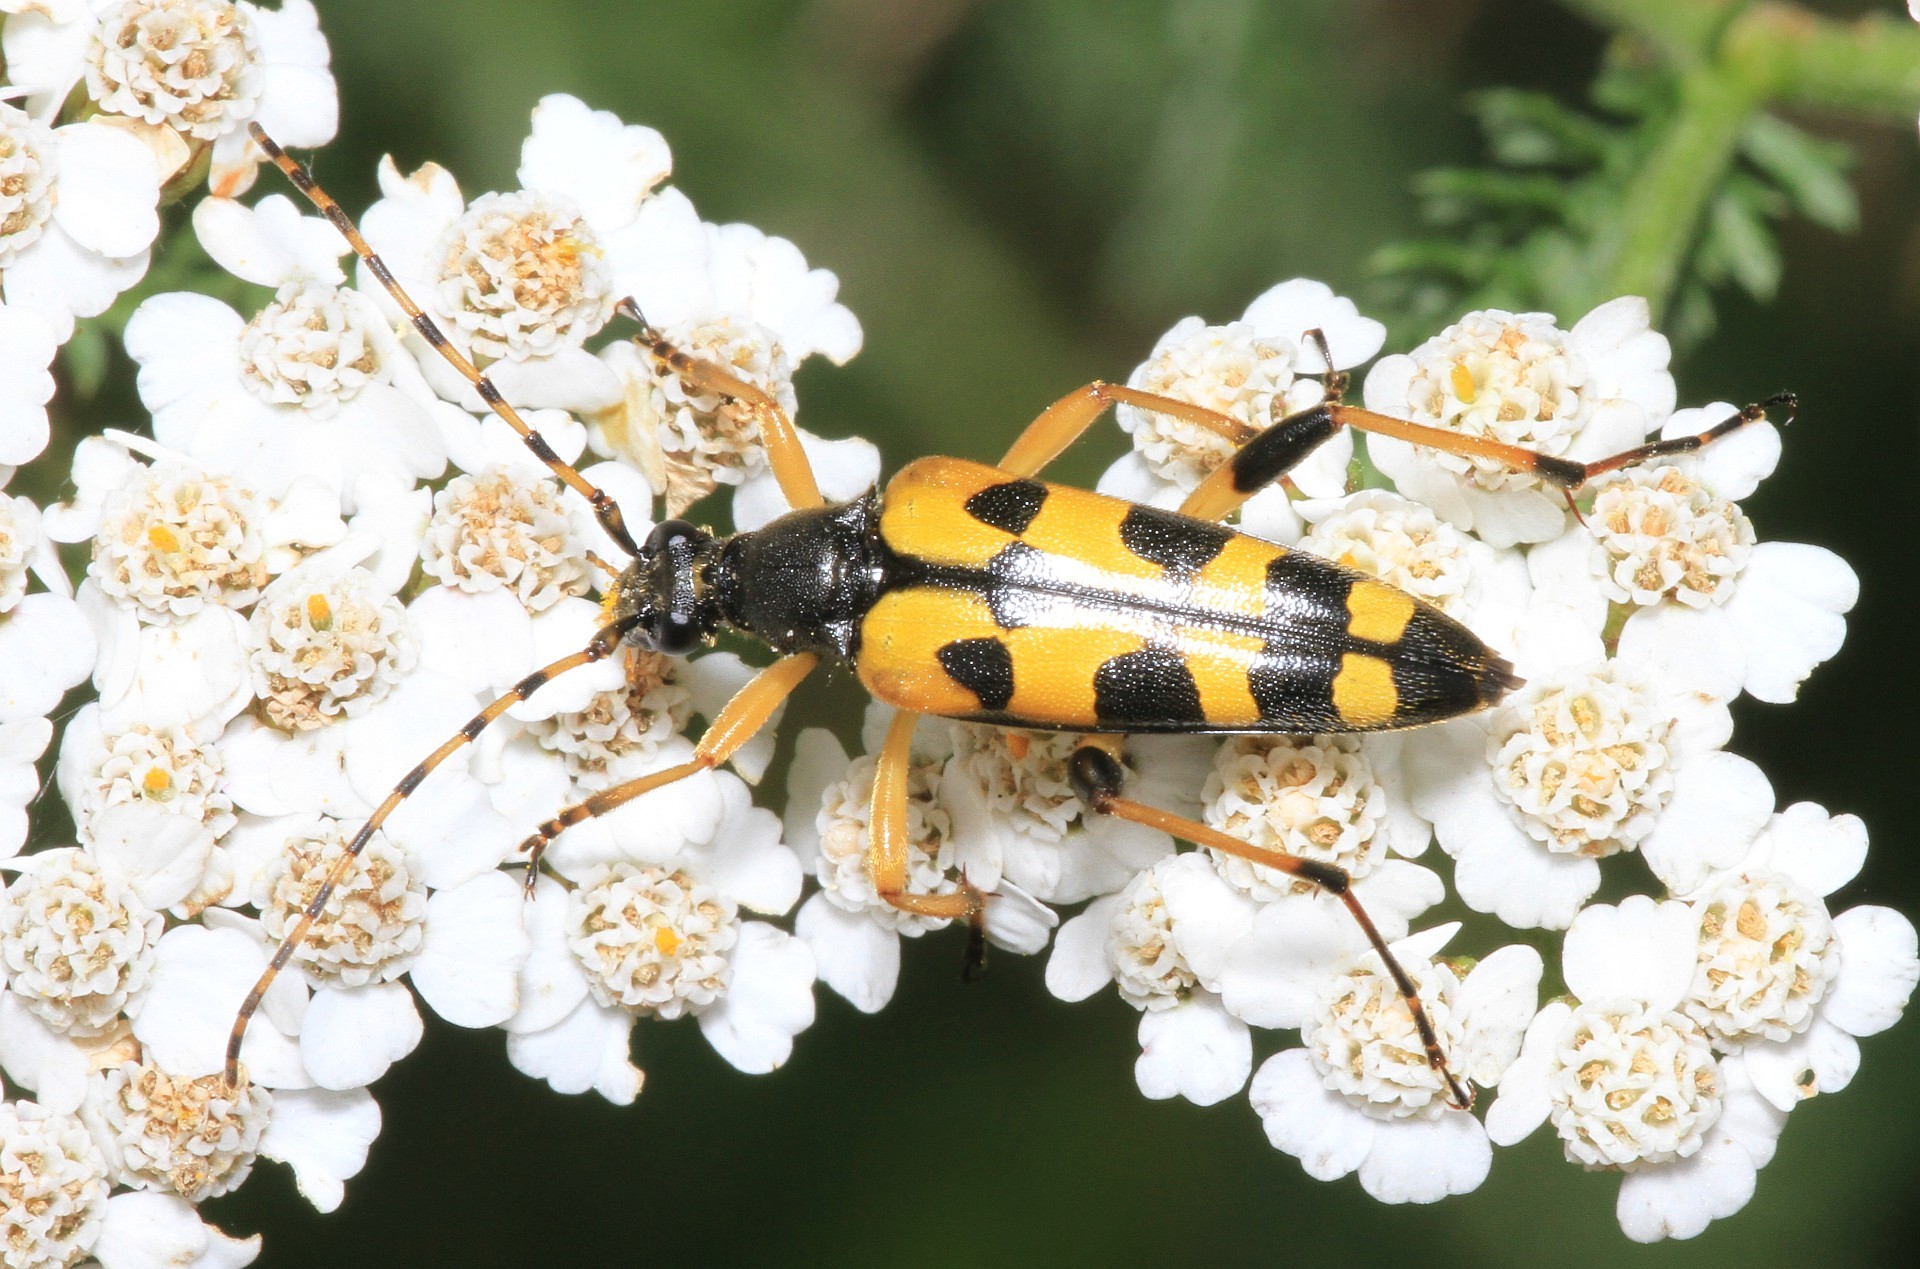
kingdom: Animalia
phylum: Arthropoda
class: Insecta
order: Coleoptera
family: Cerambycidae
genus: Rutpela
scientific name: Rutpela maculata
